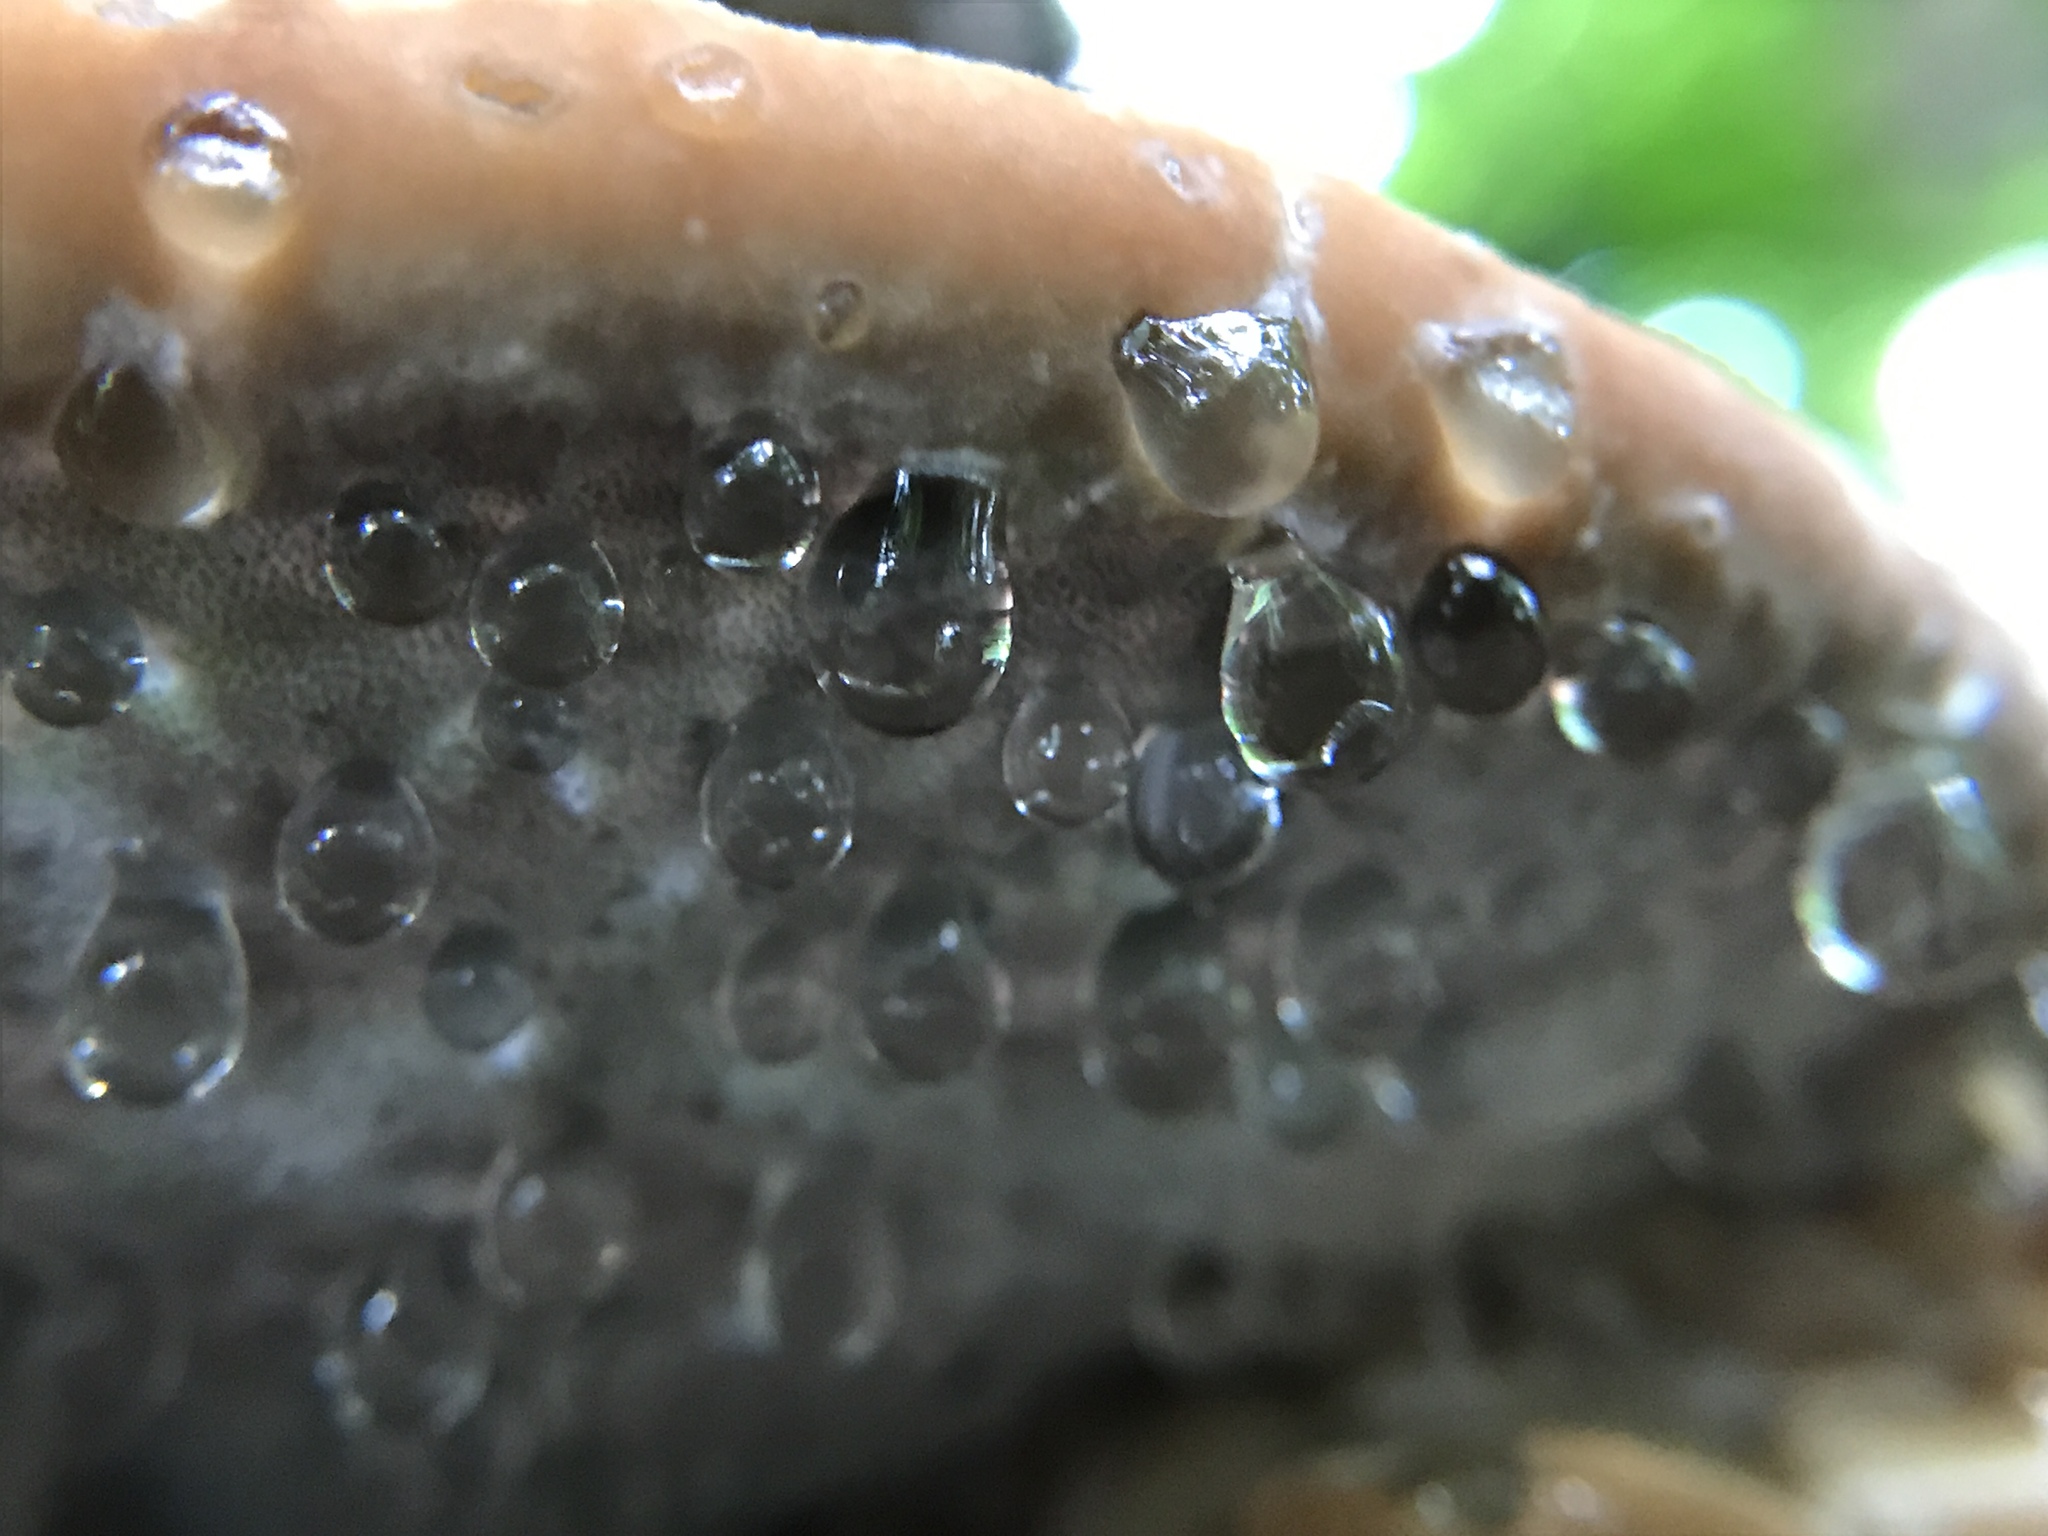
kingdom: Fungi
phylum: Basidiomycota
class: Agaricomycetes
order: Polyporales
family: Fomitopsidaceae
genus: Niveoporofomes
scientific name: Niveoporofomes spraguei
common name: Green cheese polypore
